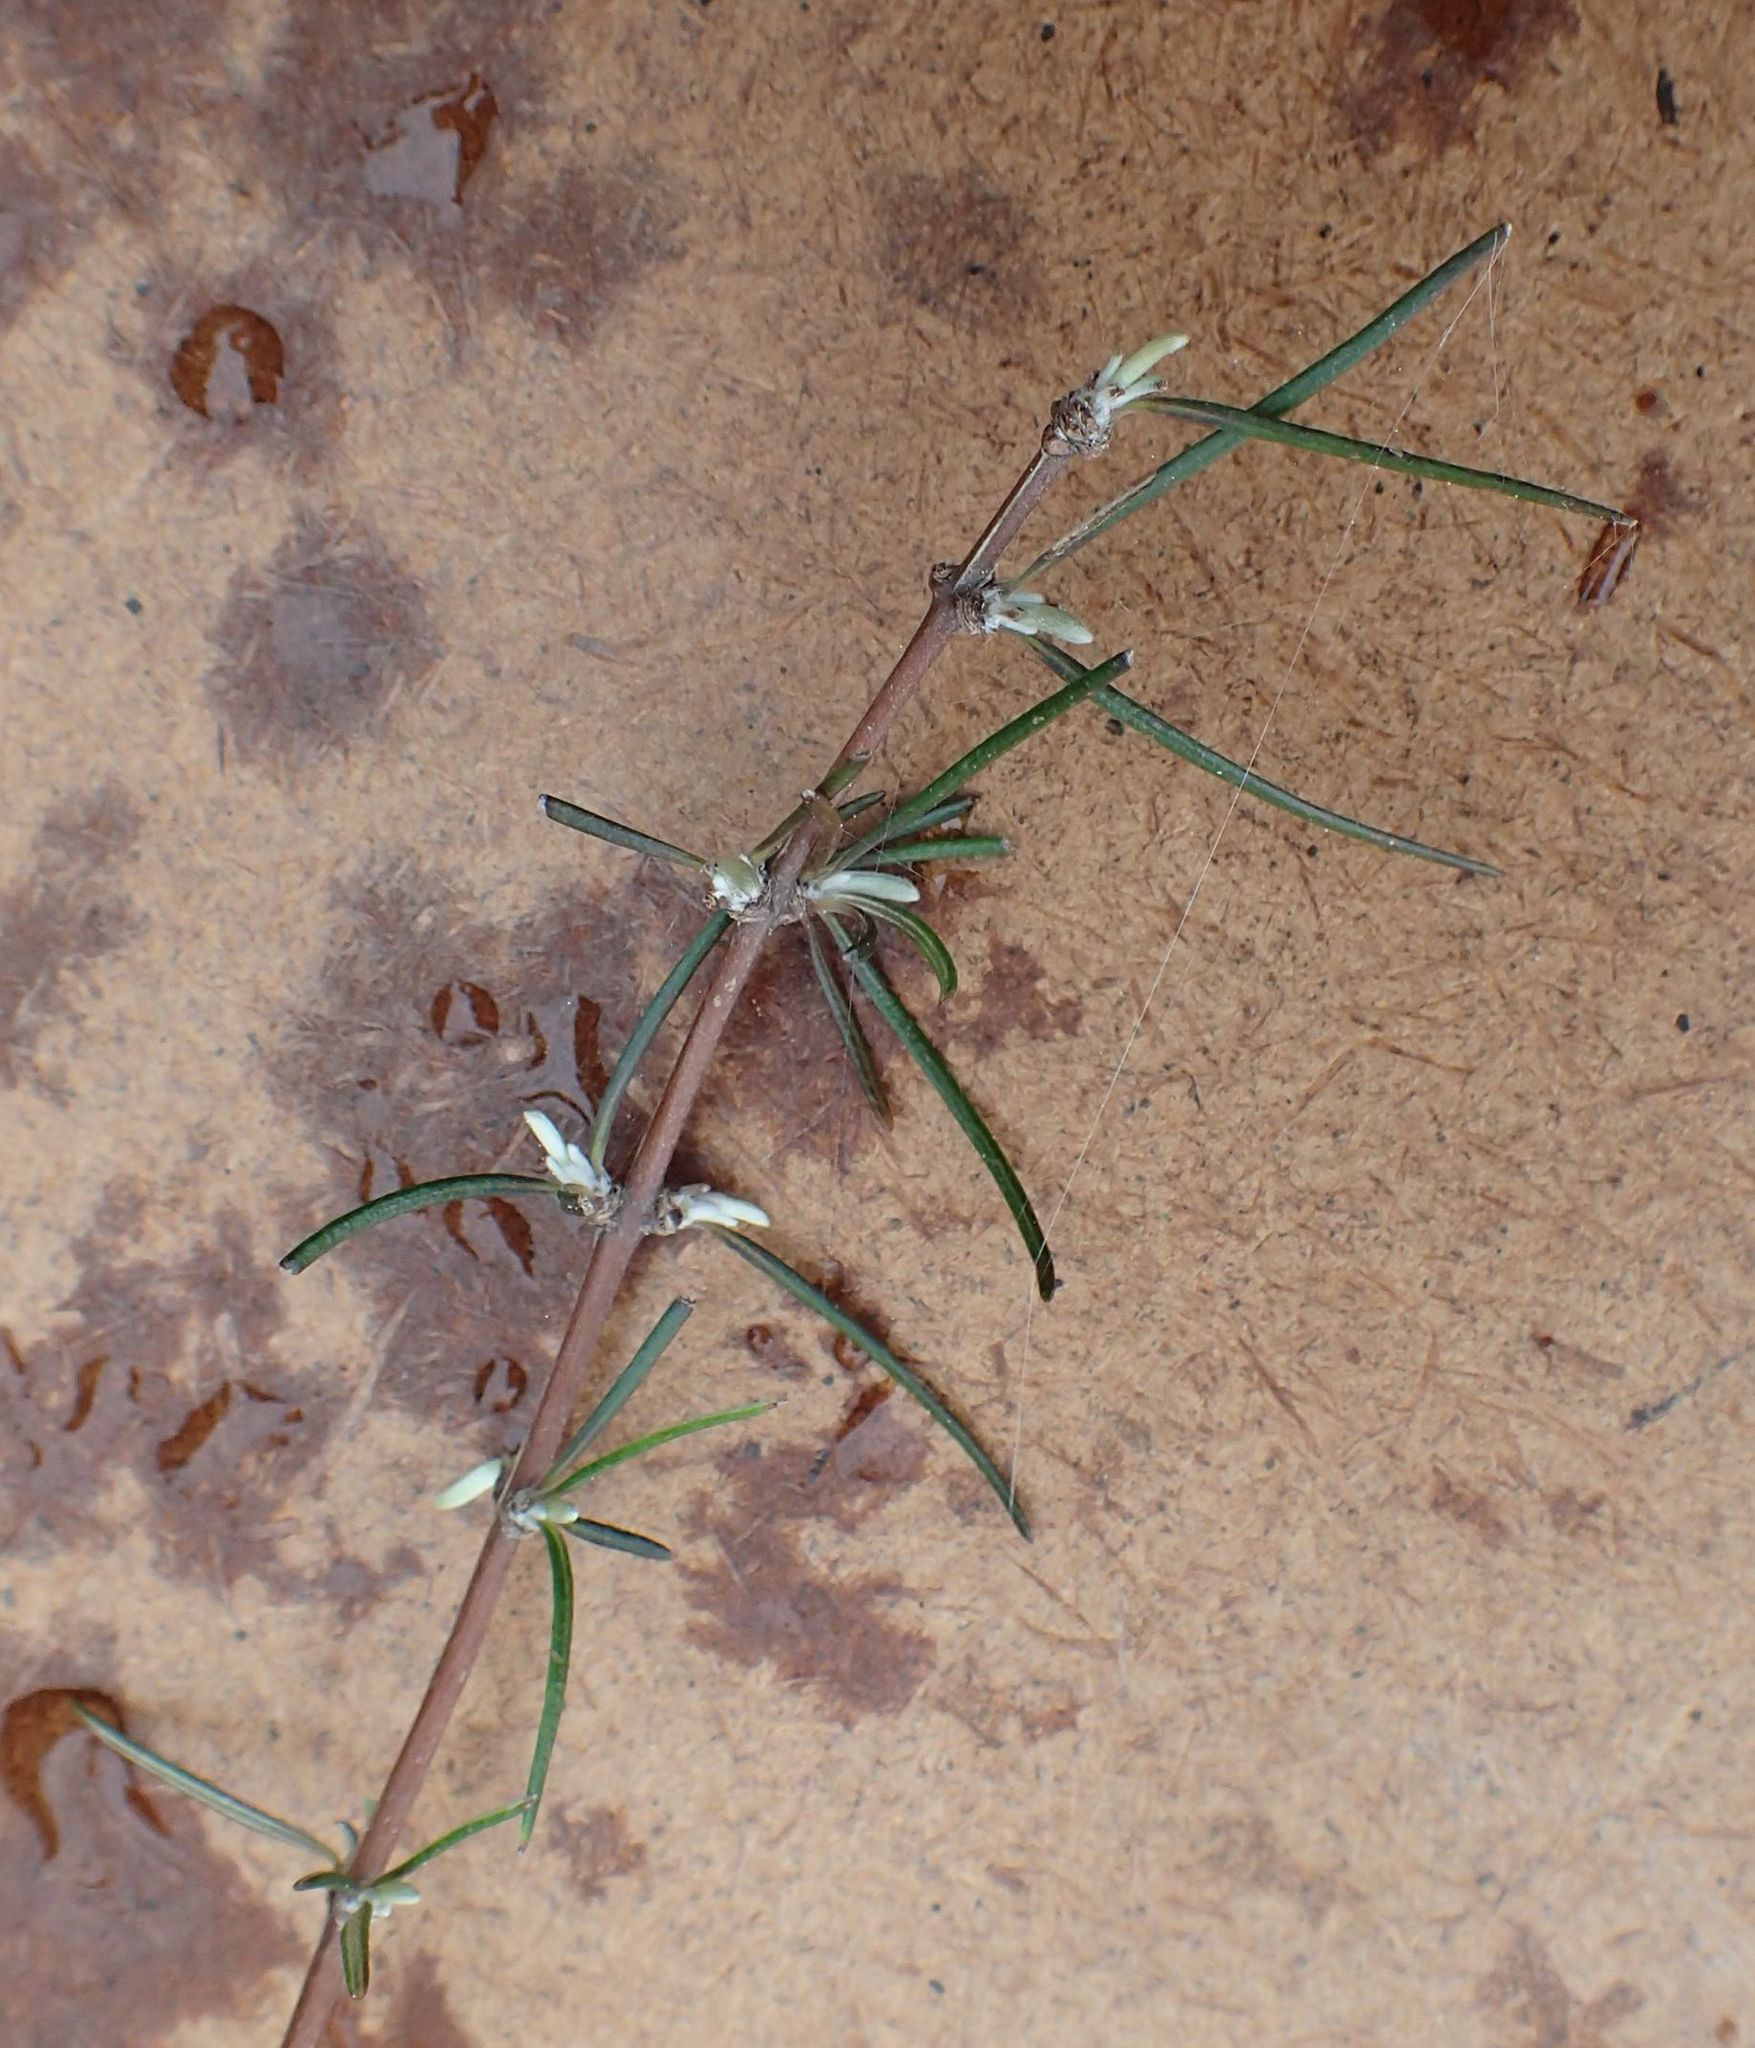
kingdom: Plantae
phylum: Tracheophyta
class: Magnoliopsida
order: Asterales
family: Asteraceae
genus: Olearia
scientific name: Olearia lineata
